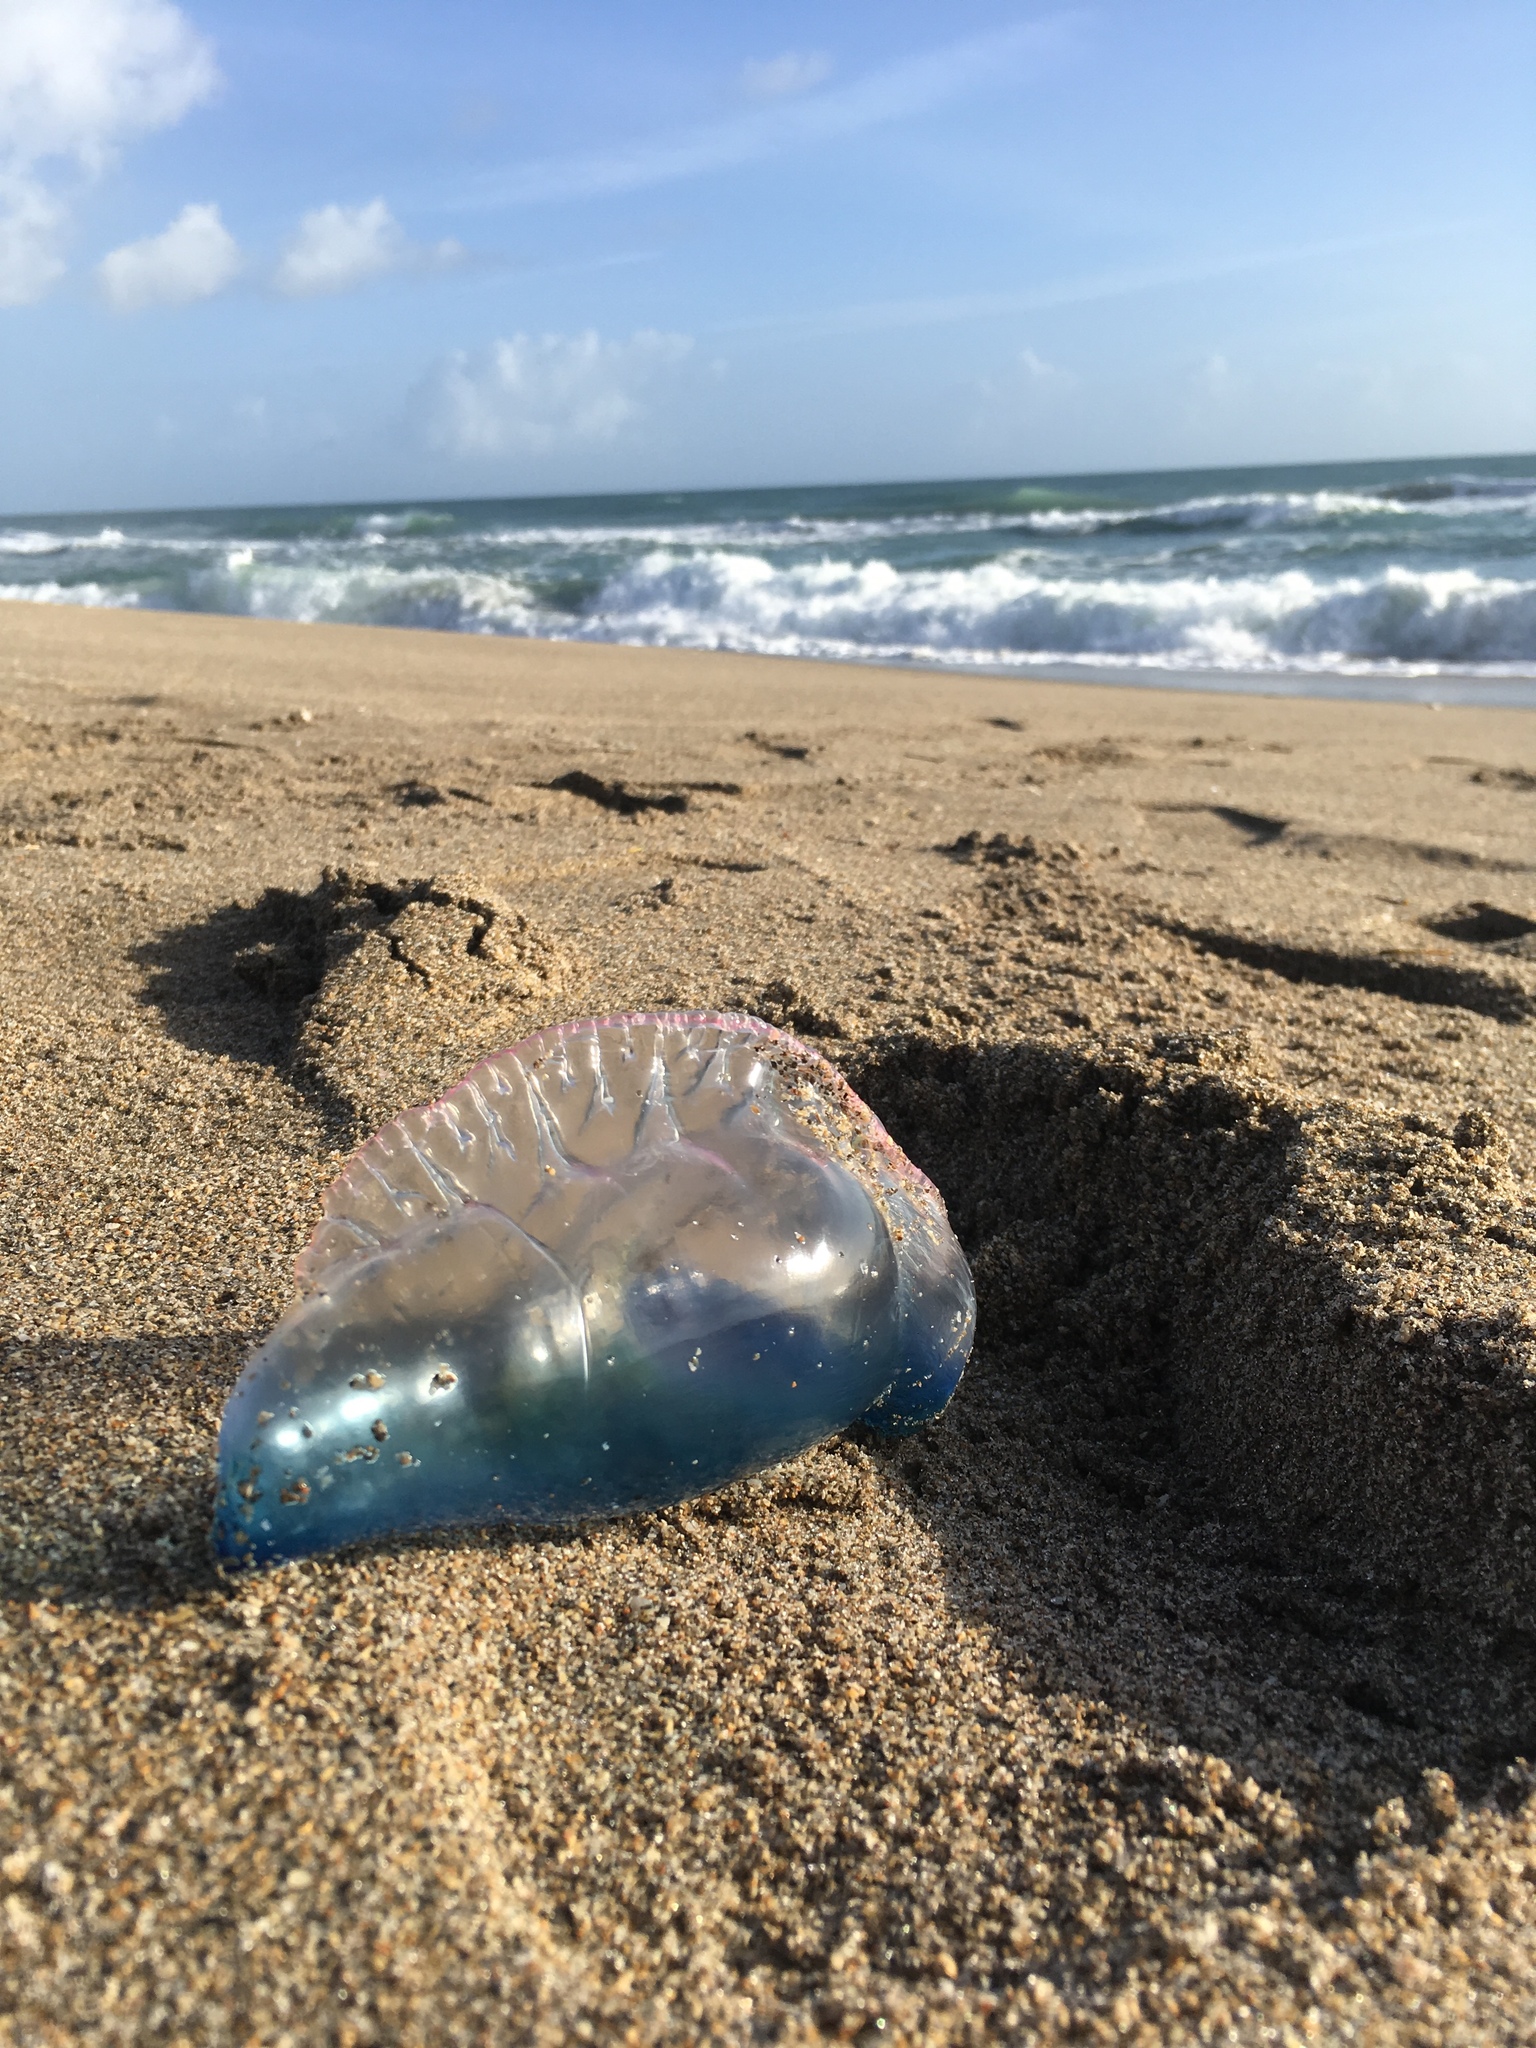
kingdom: Animalia
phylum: Cnidaria
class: Hydrozoa
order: Siphonophorae
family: Physaliidae
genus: Physalia
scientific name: Physalia physalis
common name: Portuguese man-of-war
